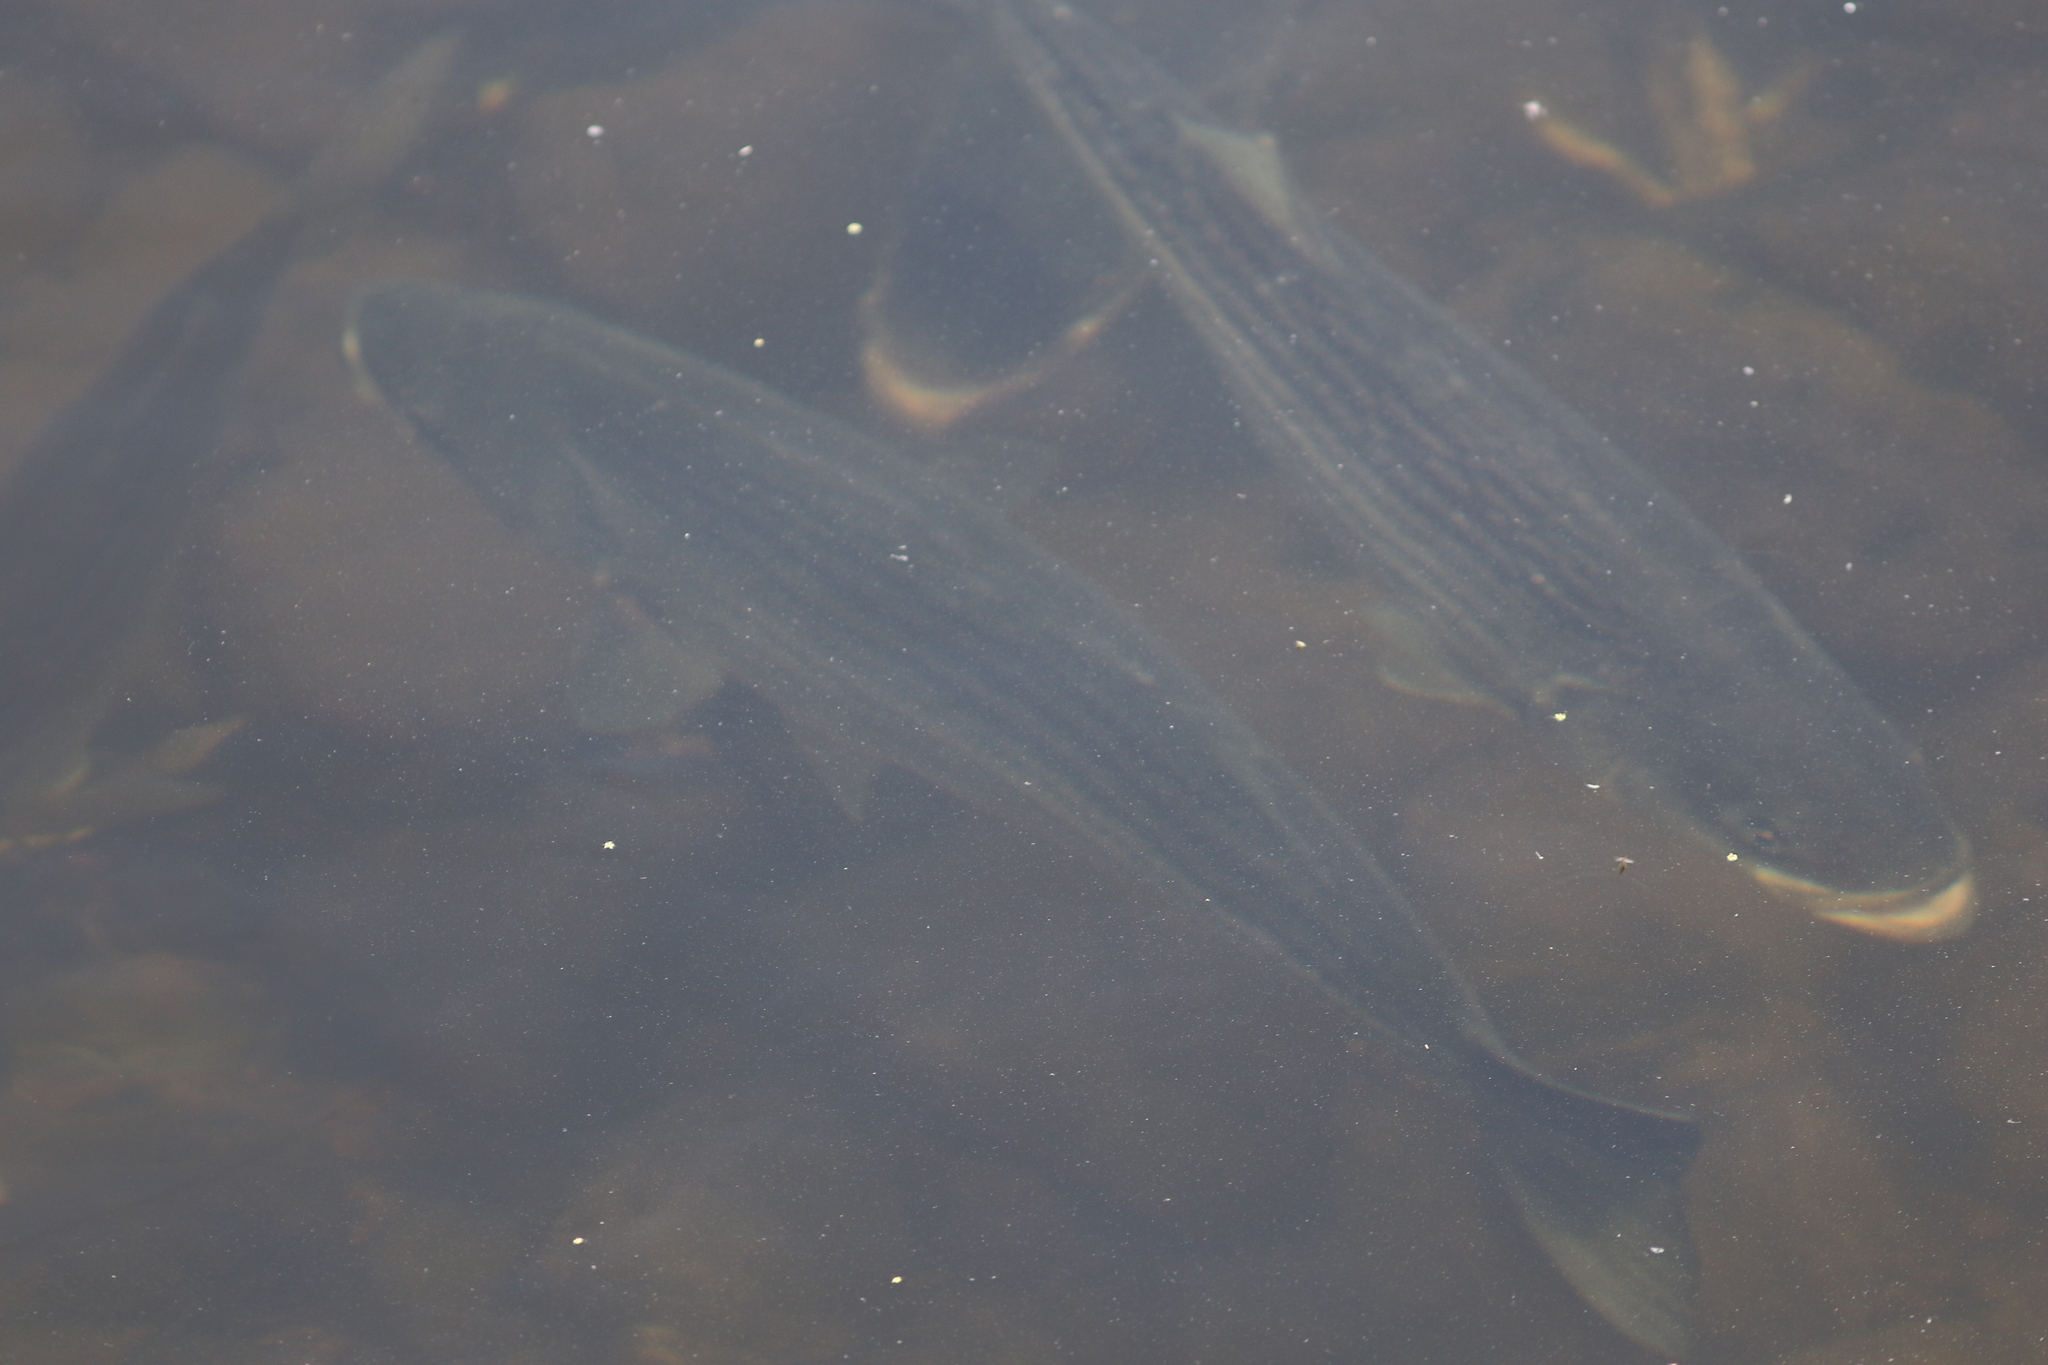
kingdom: Animalia
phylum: Chordata
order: Perciformes
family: Moronidae
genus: Morone
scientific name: Morone saxatilis
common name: Striped bass
